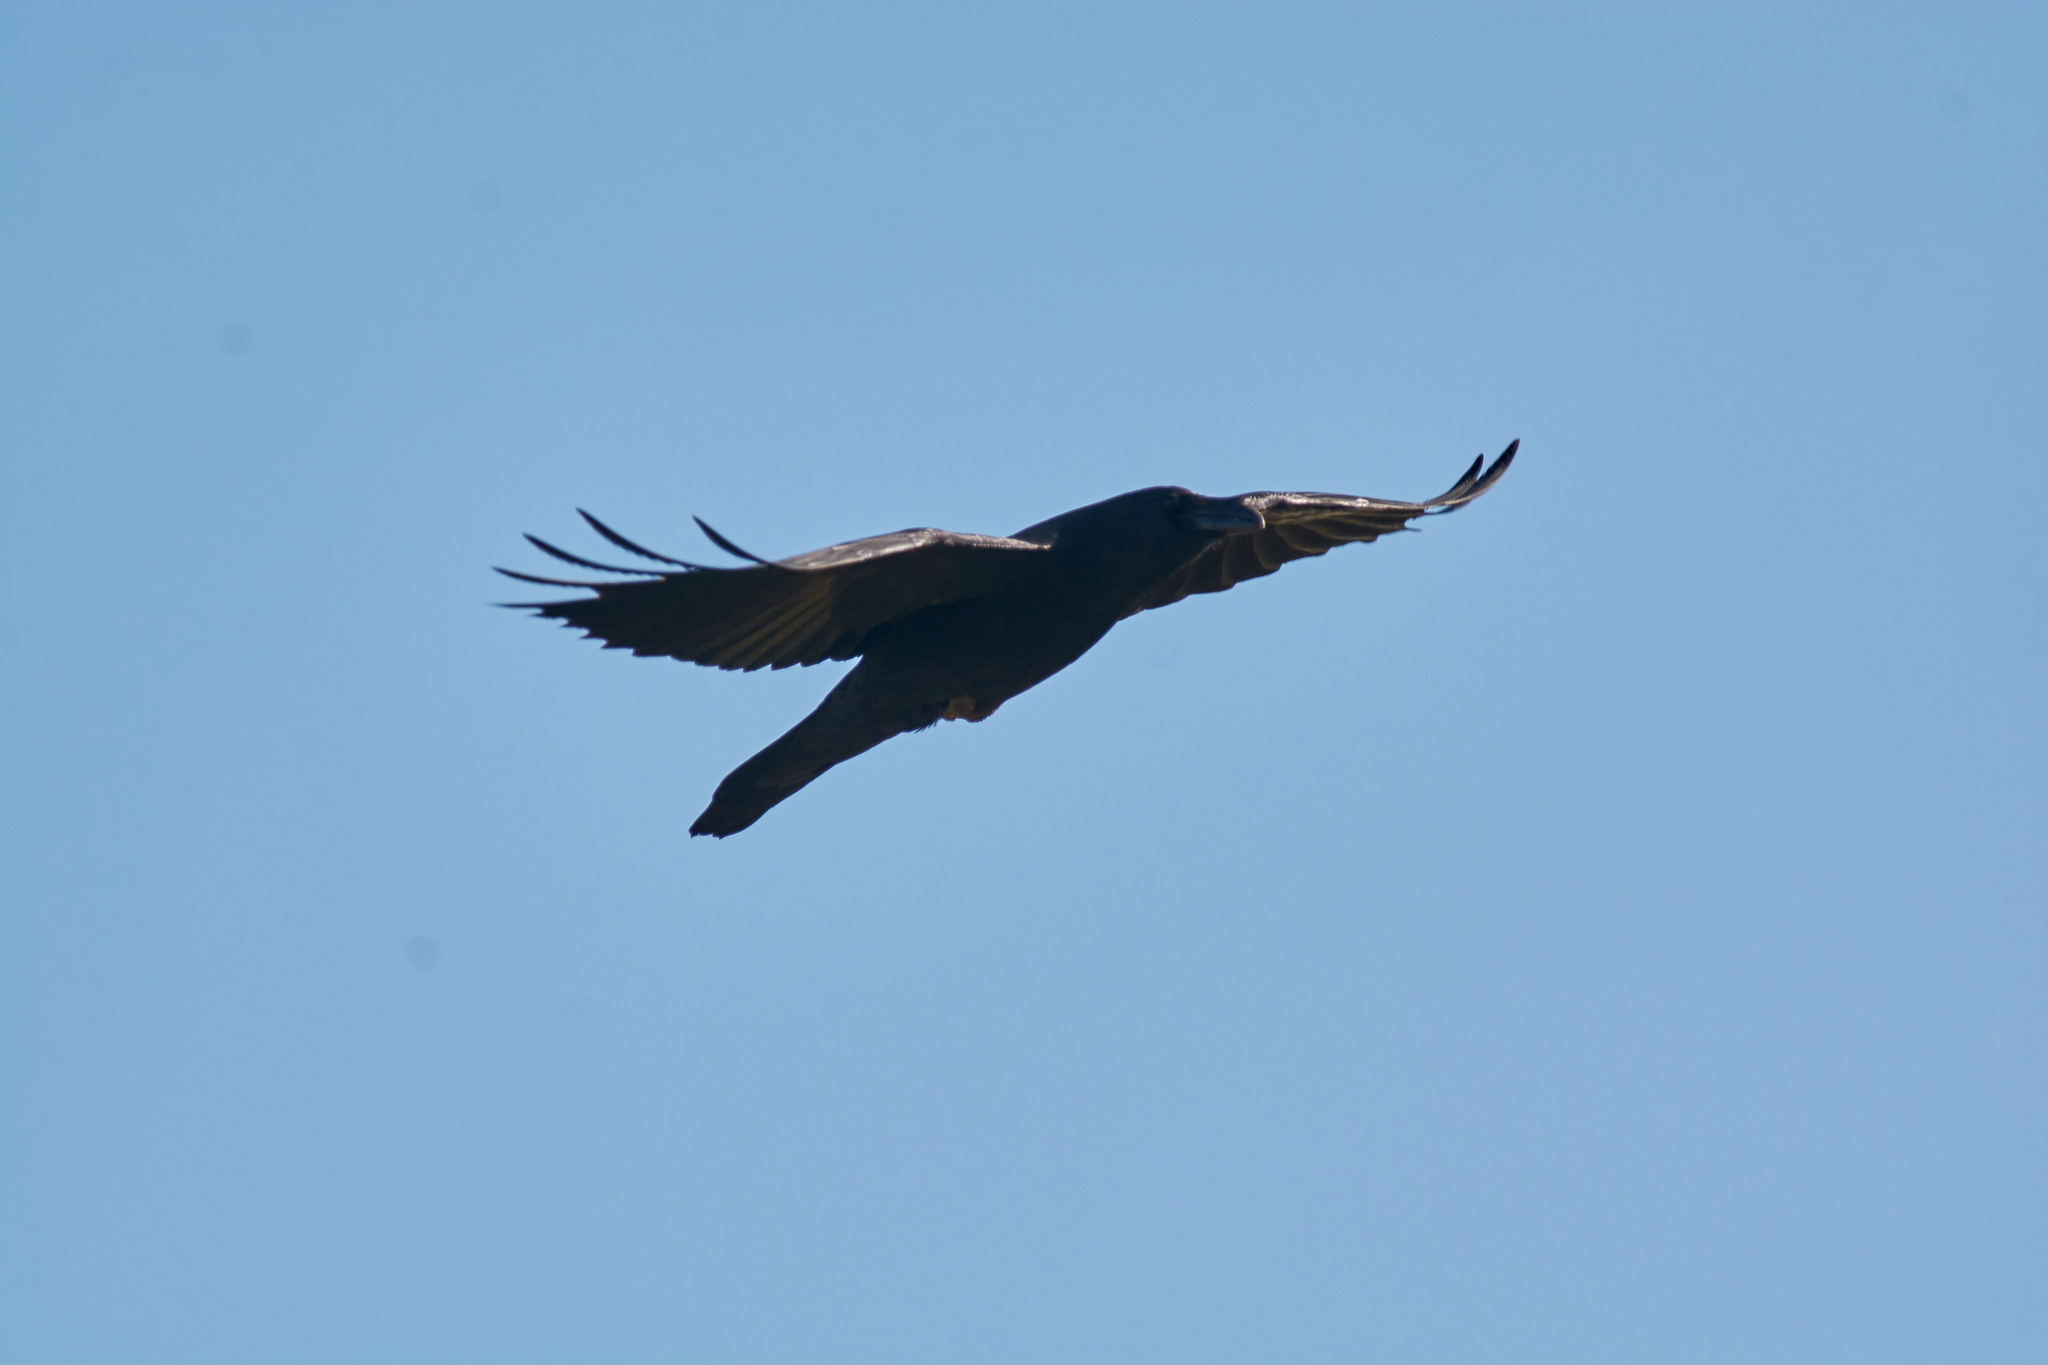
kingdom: Animalia
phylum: Chordata
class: Aves
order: Passeriformes
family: Corvidae
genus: Corvus
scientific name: Corvus corax
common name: Common raven
